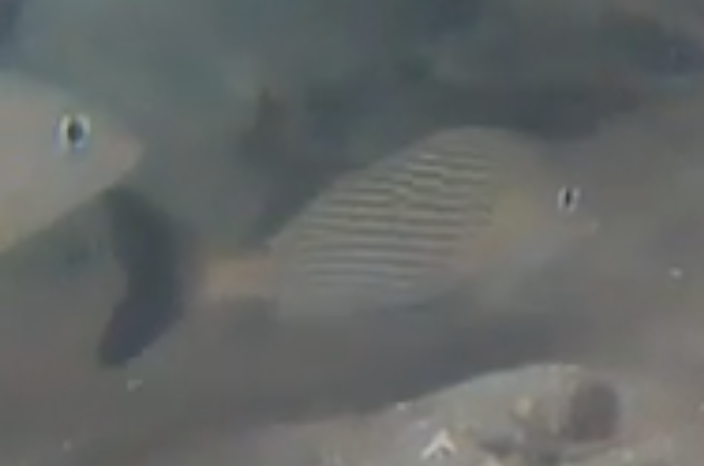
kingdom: Animalia
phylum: Chordata
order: Perciformes
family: Haemulidae
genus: Haemulon
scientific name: Haemulon parra
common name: Sailor's choice
